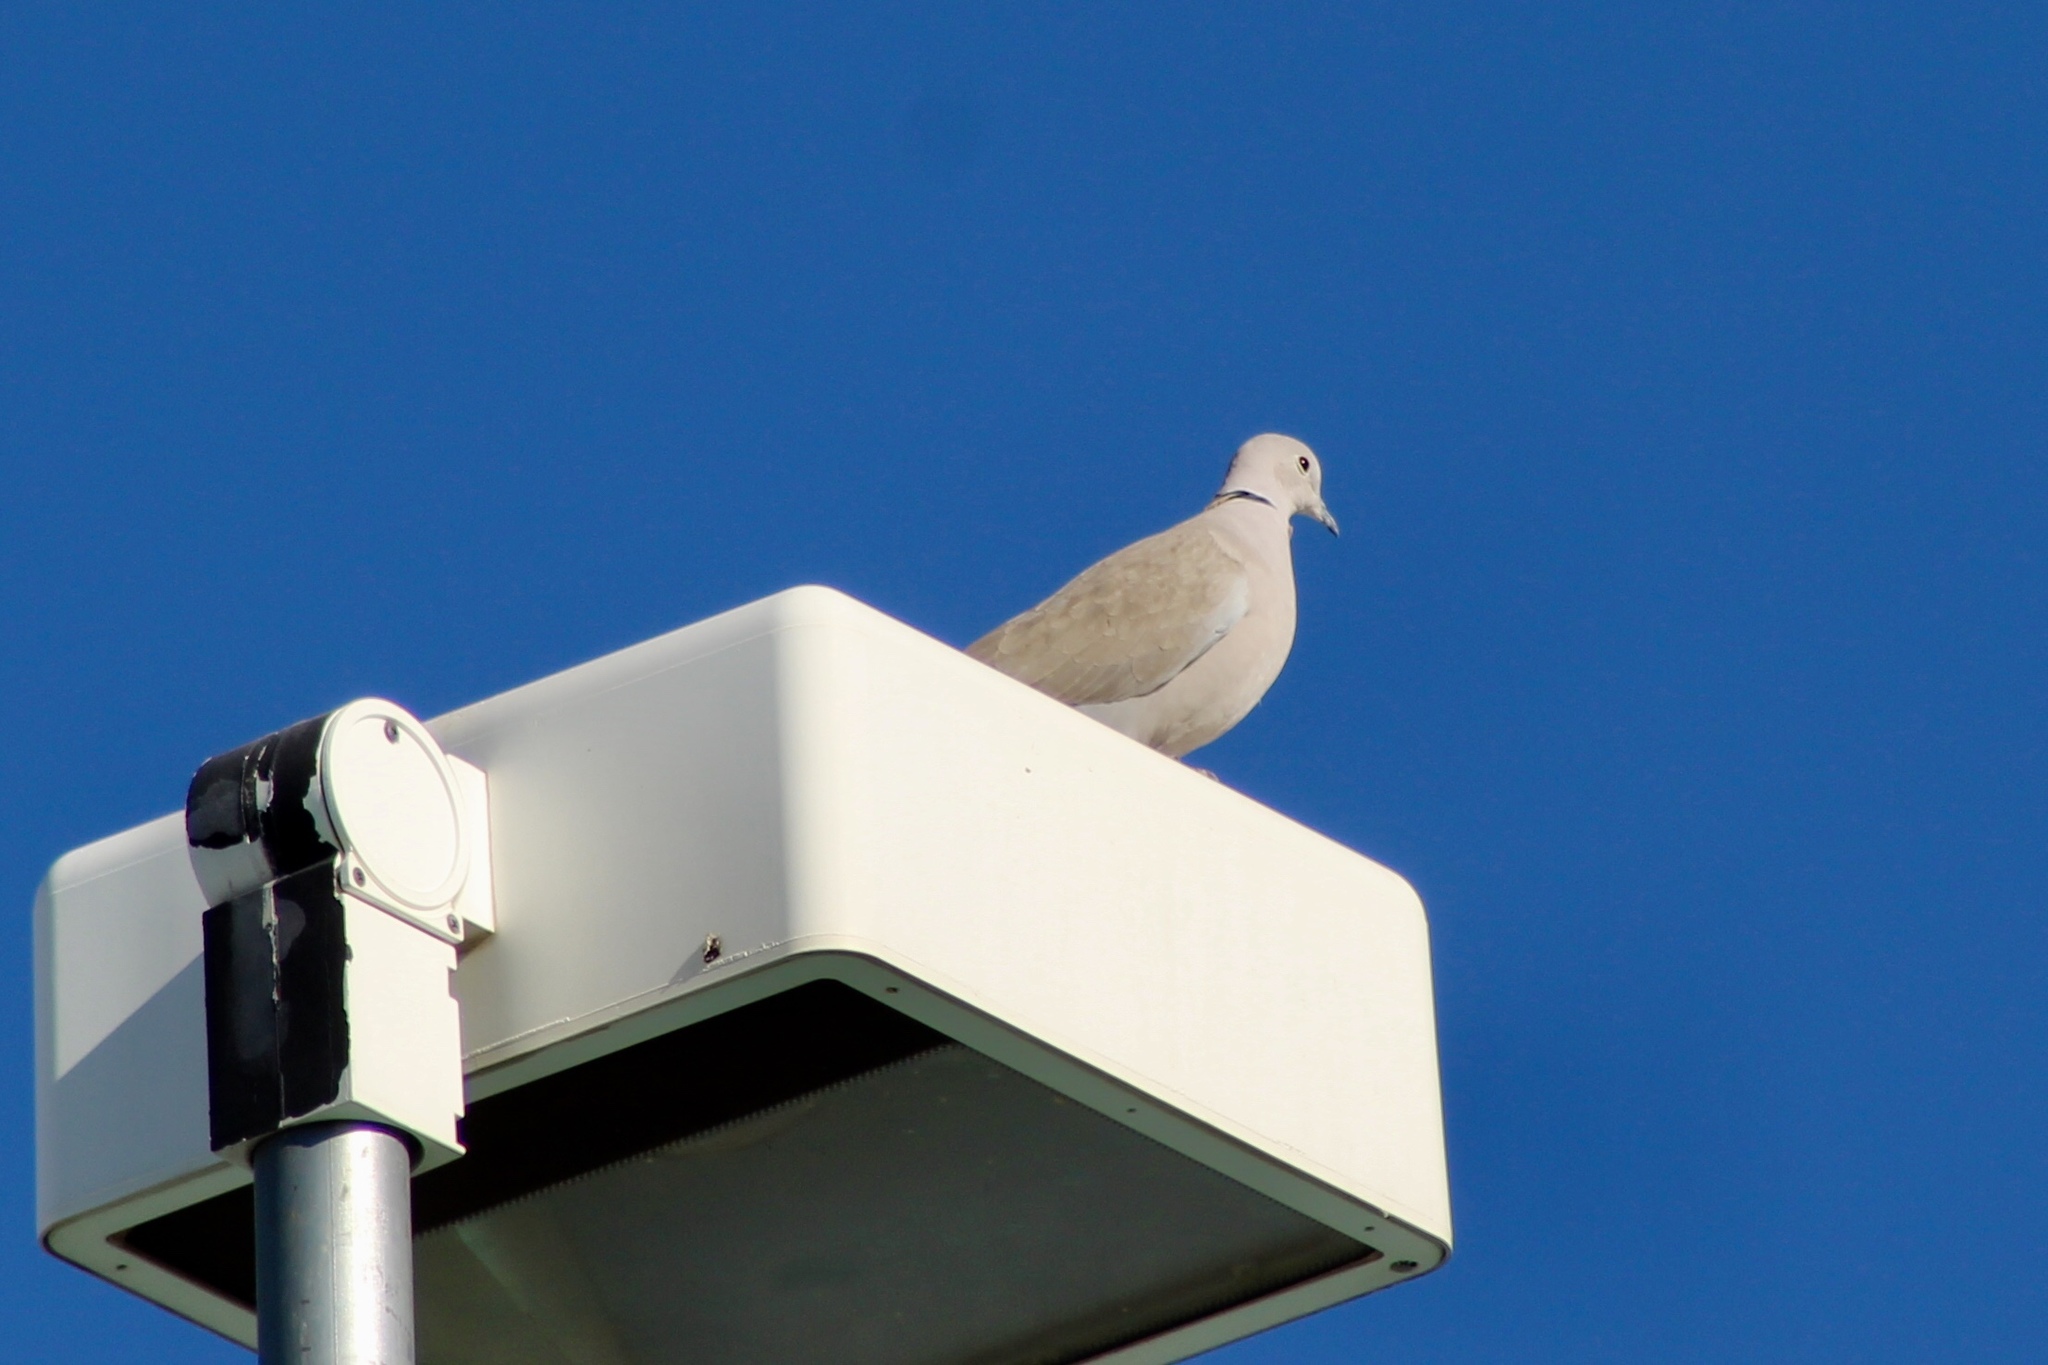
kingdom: Animalia
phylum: Chordata
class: Aves
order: Columbiformes
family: Columbidae
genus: Streptopelia
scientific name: Streptopelia decaocto
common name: Eurasian collared dove
